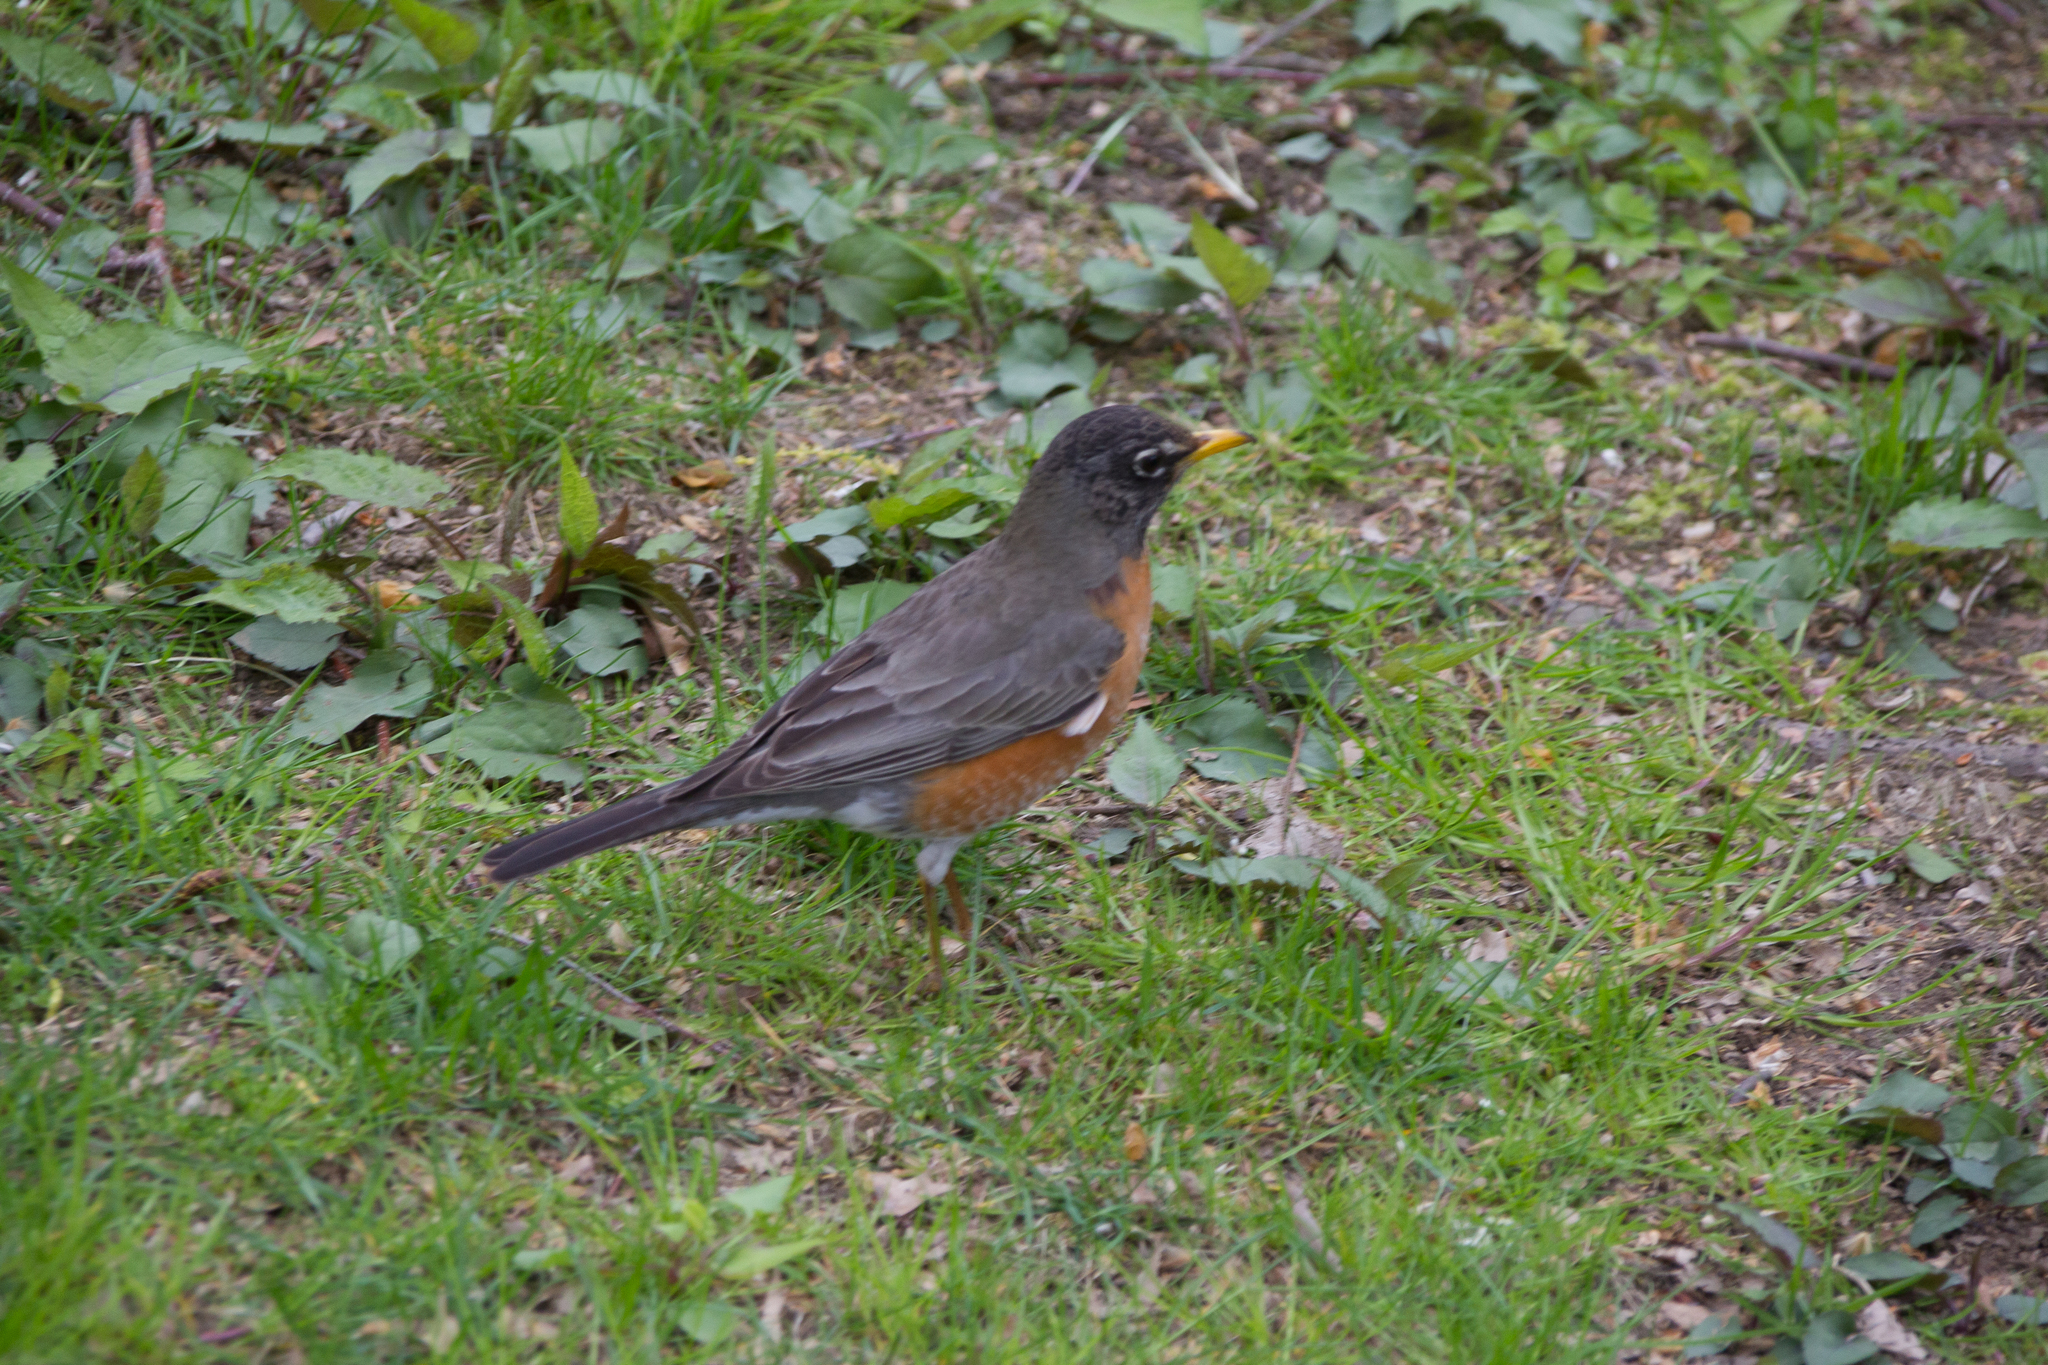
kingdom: Animalia
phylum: Chordata
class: Aves
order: Passeriformes
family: Turdidae
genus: Turdus
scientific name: Turdus migratorius
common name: American robin
